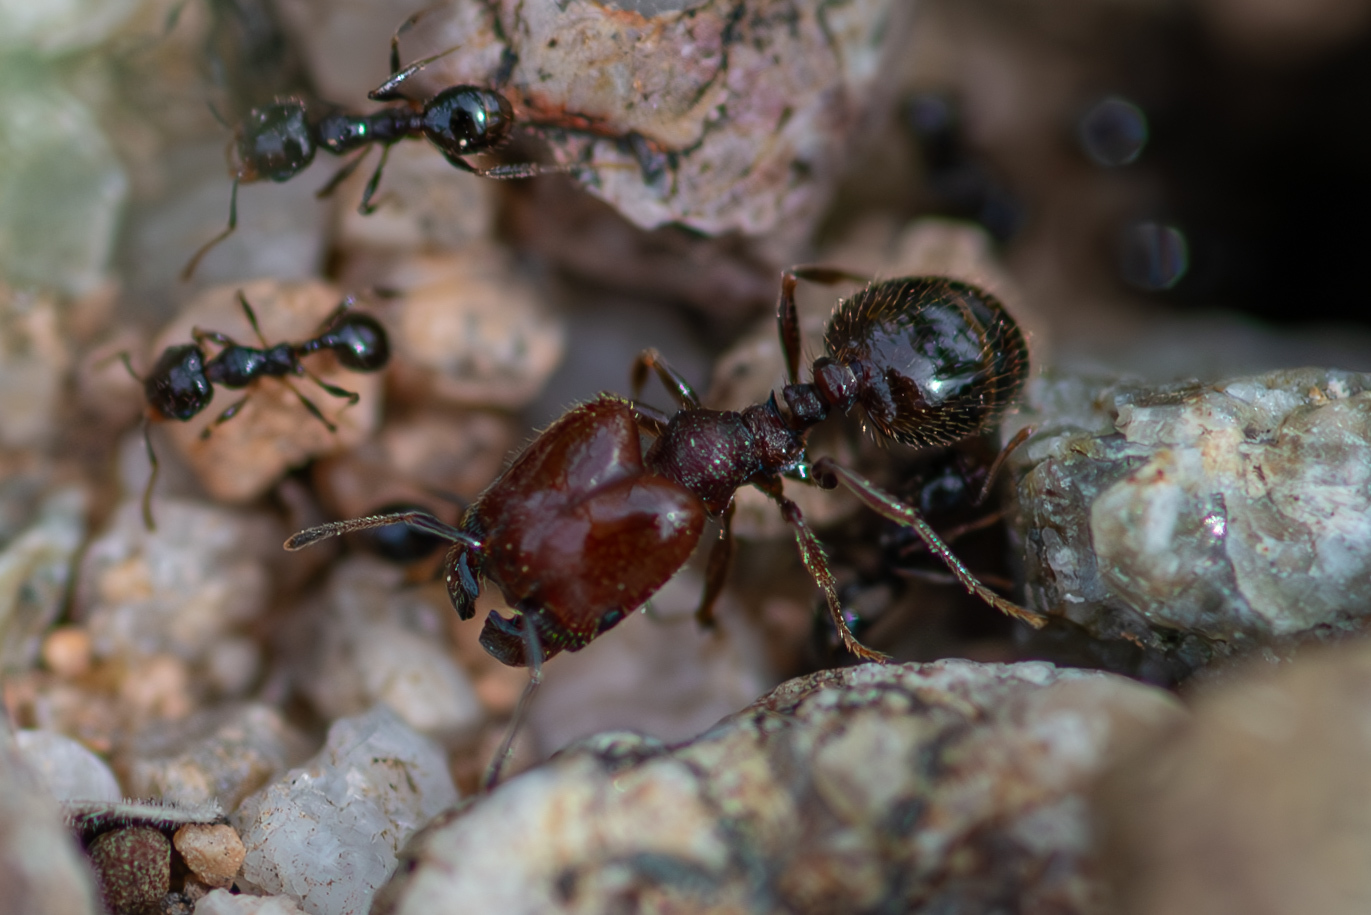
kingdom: Animalia
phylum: Arthropoda
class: Insecta
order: Hymenoptera
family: Formicidae
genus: Pheidole
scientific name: Pheidole xerophila
